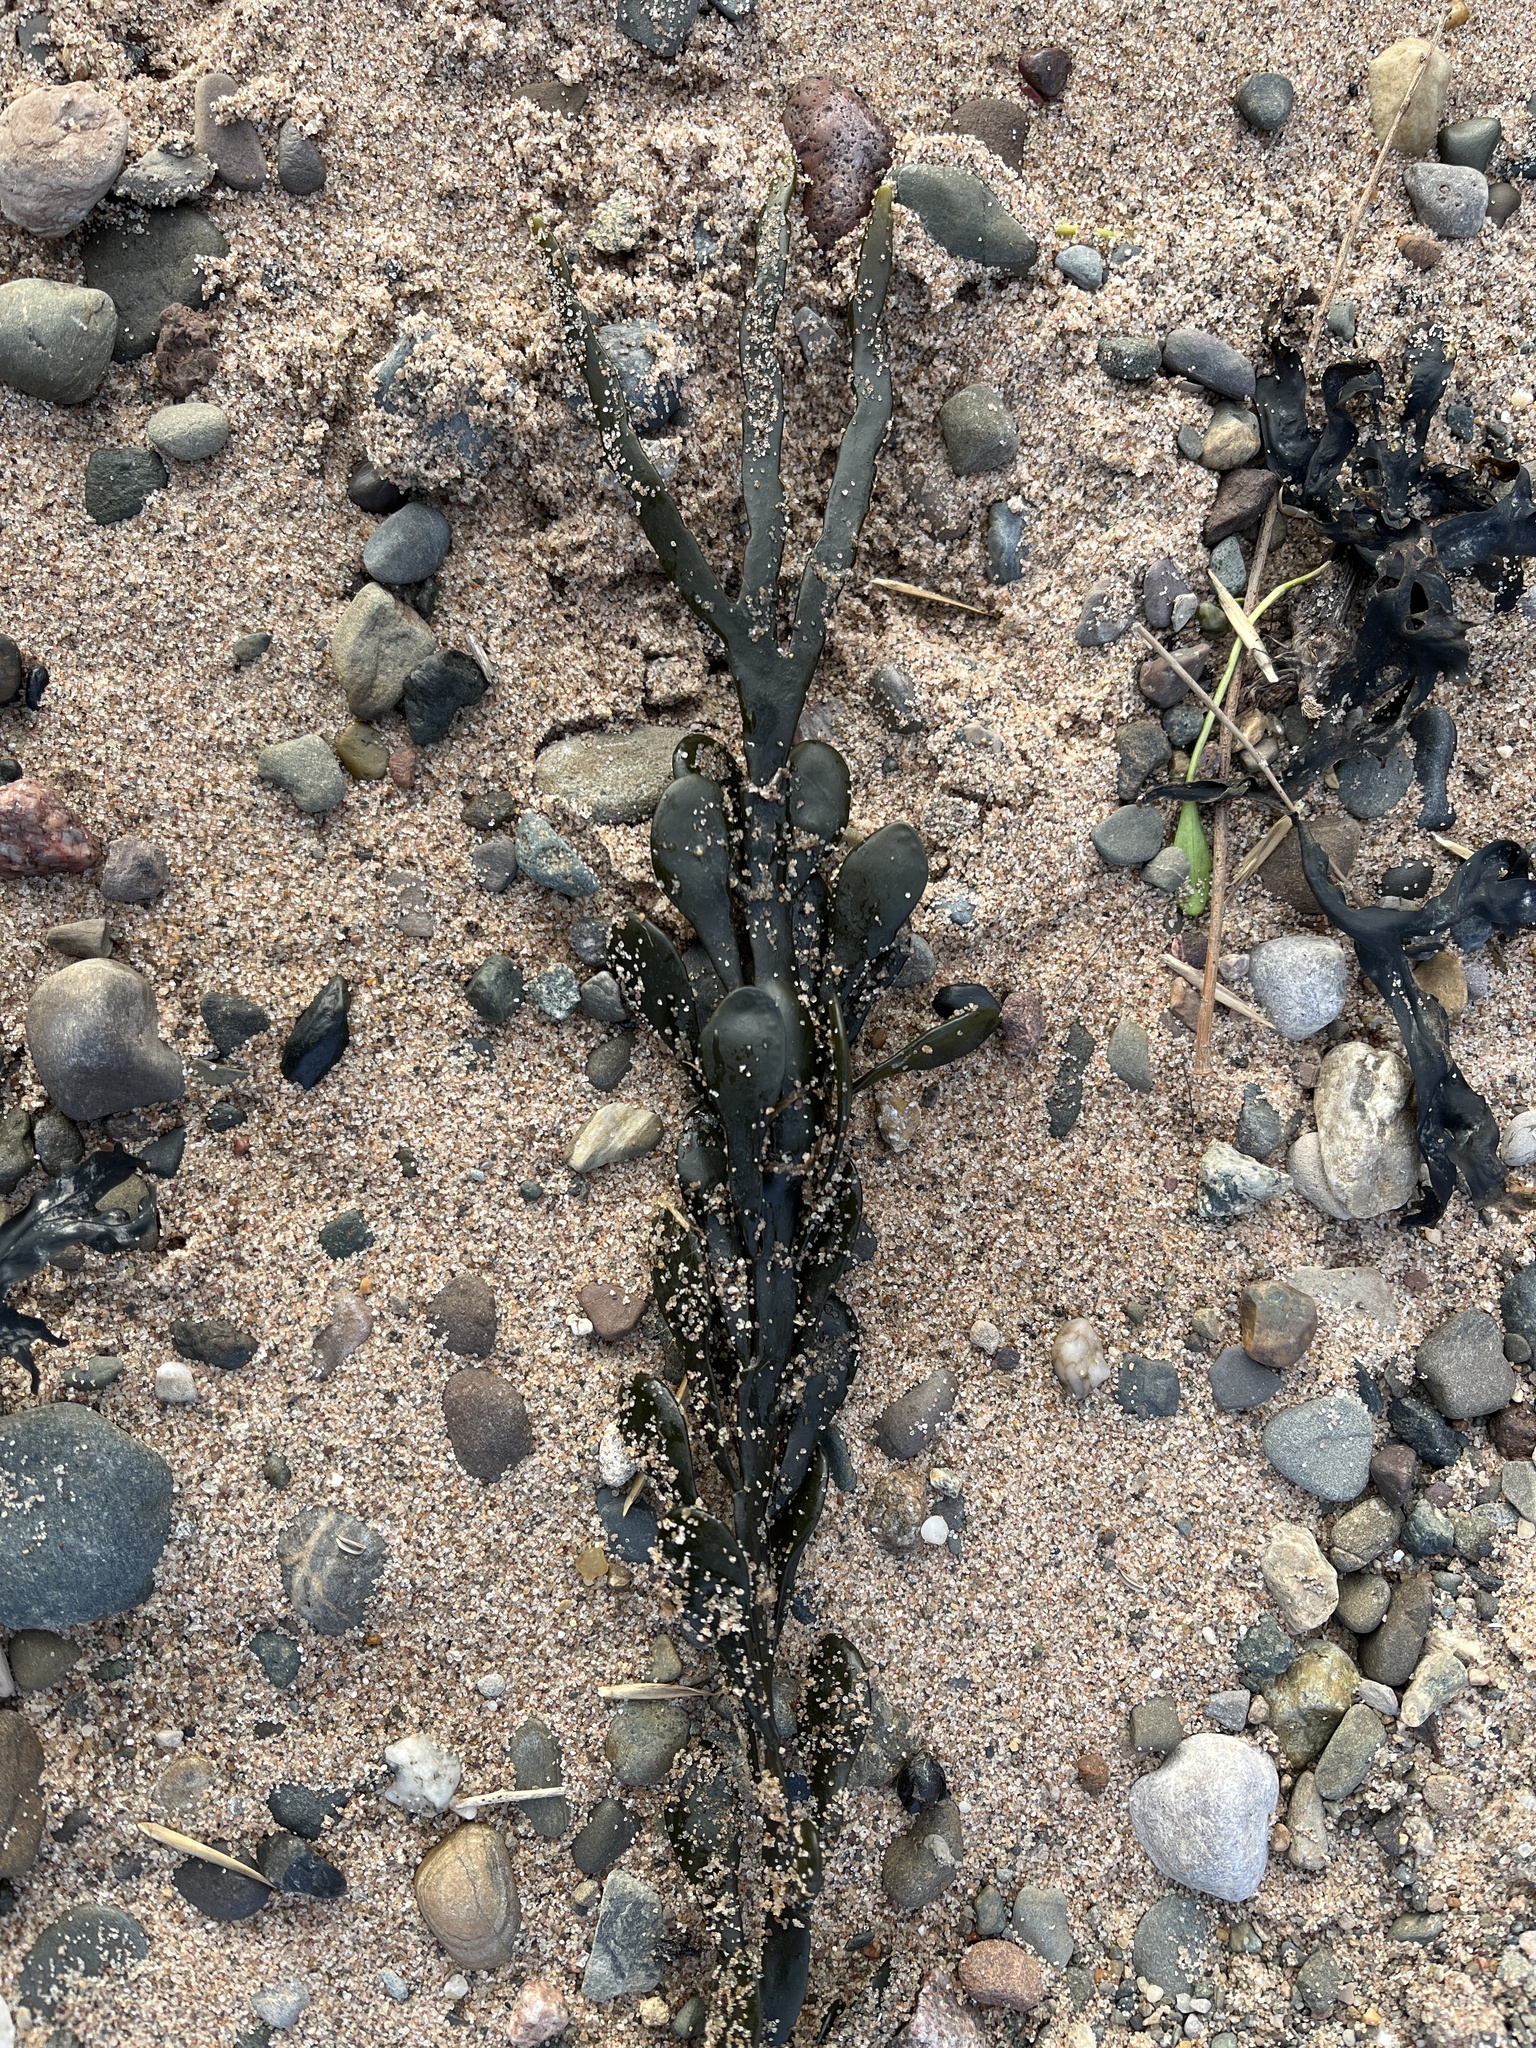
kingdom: Chromista
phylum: Ochrophyta
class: Phaeophyceae
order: Fucales
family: Fucaceae
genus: Ascophyllum
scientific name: Ascophyllum nodosum
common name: Knotted wrack
